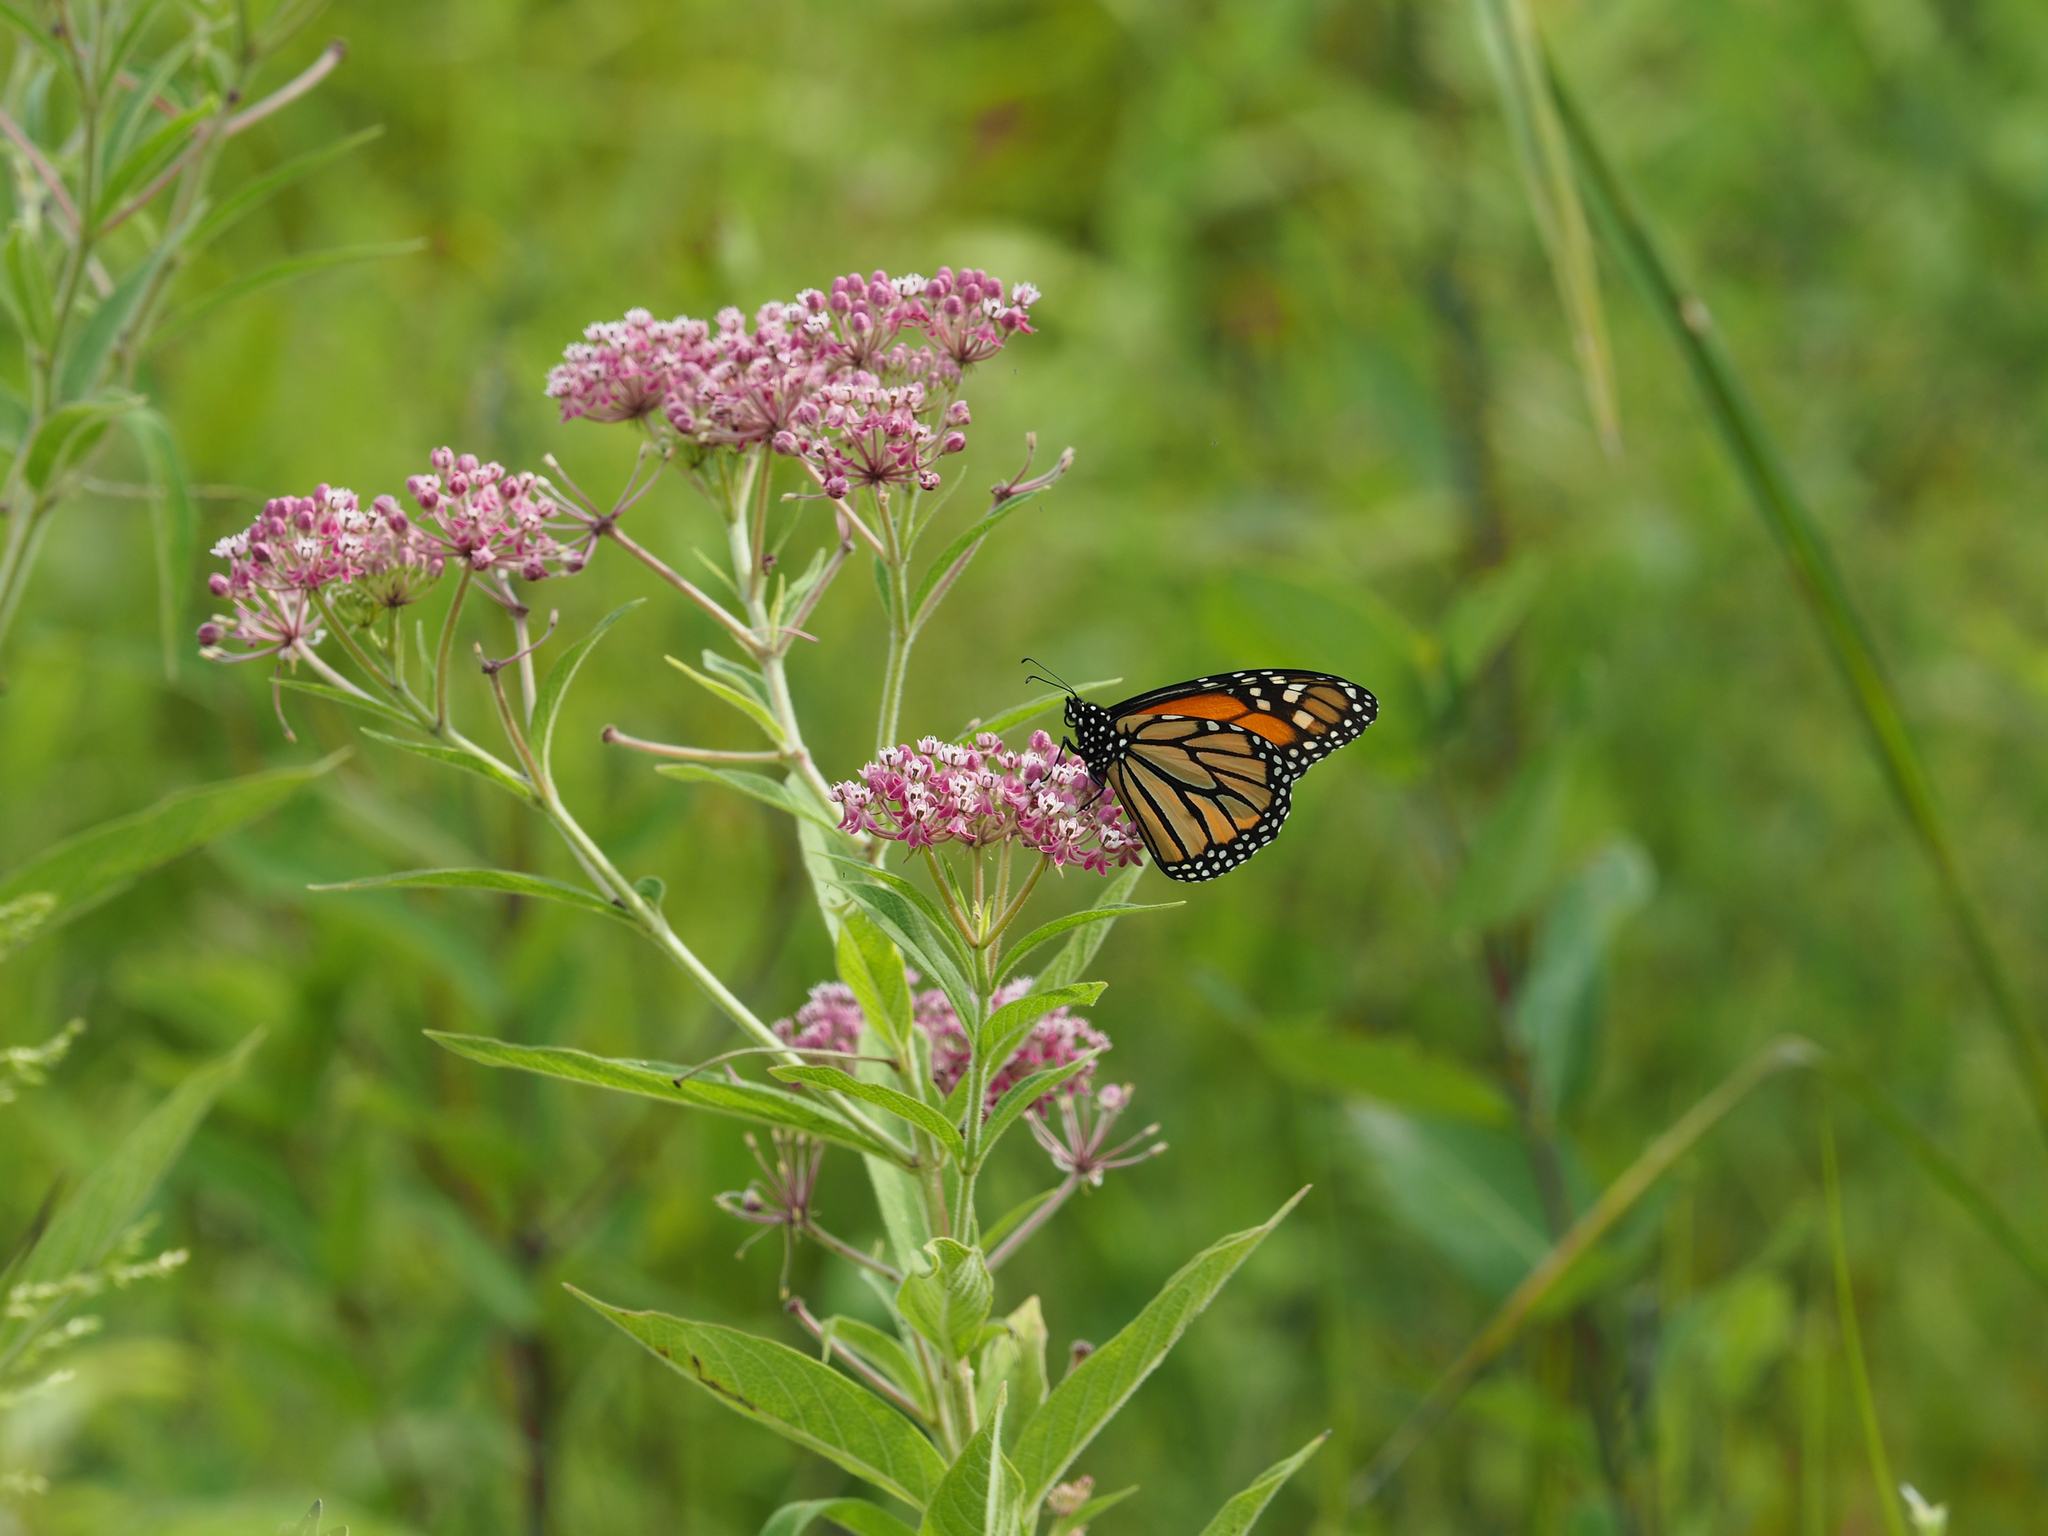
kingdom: Animalia
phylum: Arthropoda
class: Insecta
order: Lepidoptera
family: Nymphalidae
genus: Danaus
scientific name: Danaus plexippus
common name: Monarch
